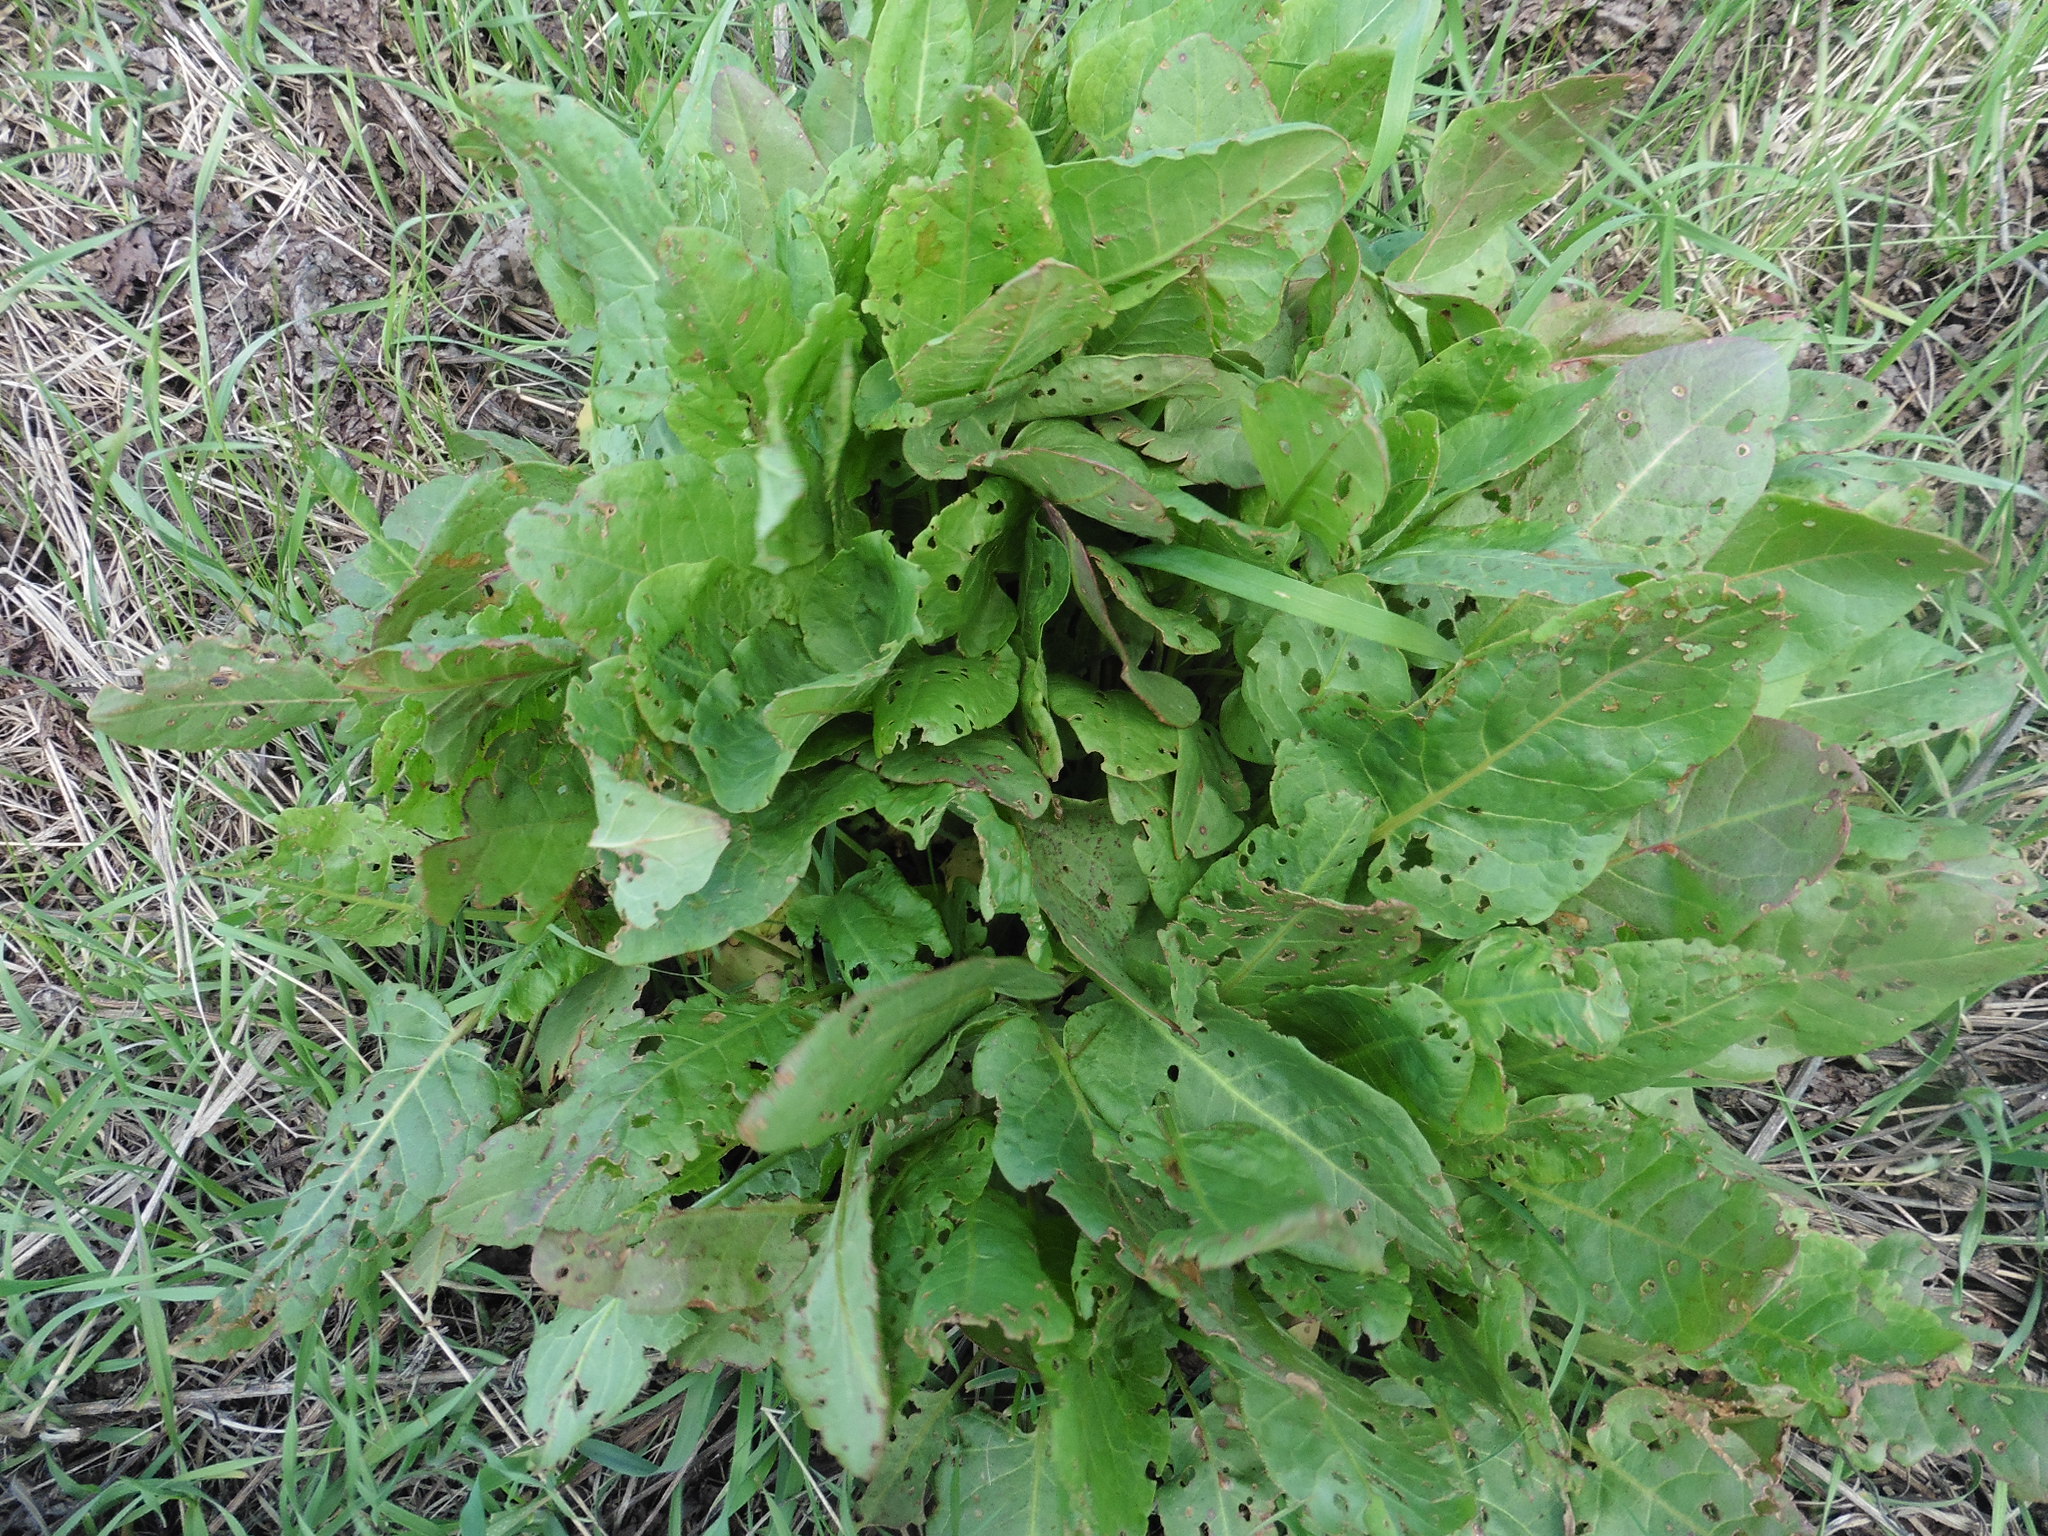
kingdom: Plantae
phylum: Tracheophyta
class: Magnoliopsida
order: Caryophyllales
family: Polygonaceae
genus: Rumex
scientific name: Rumex confertus
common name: Russian dock
